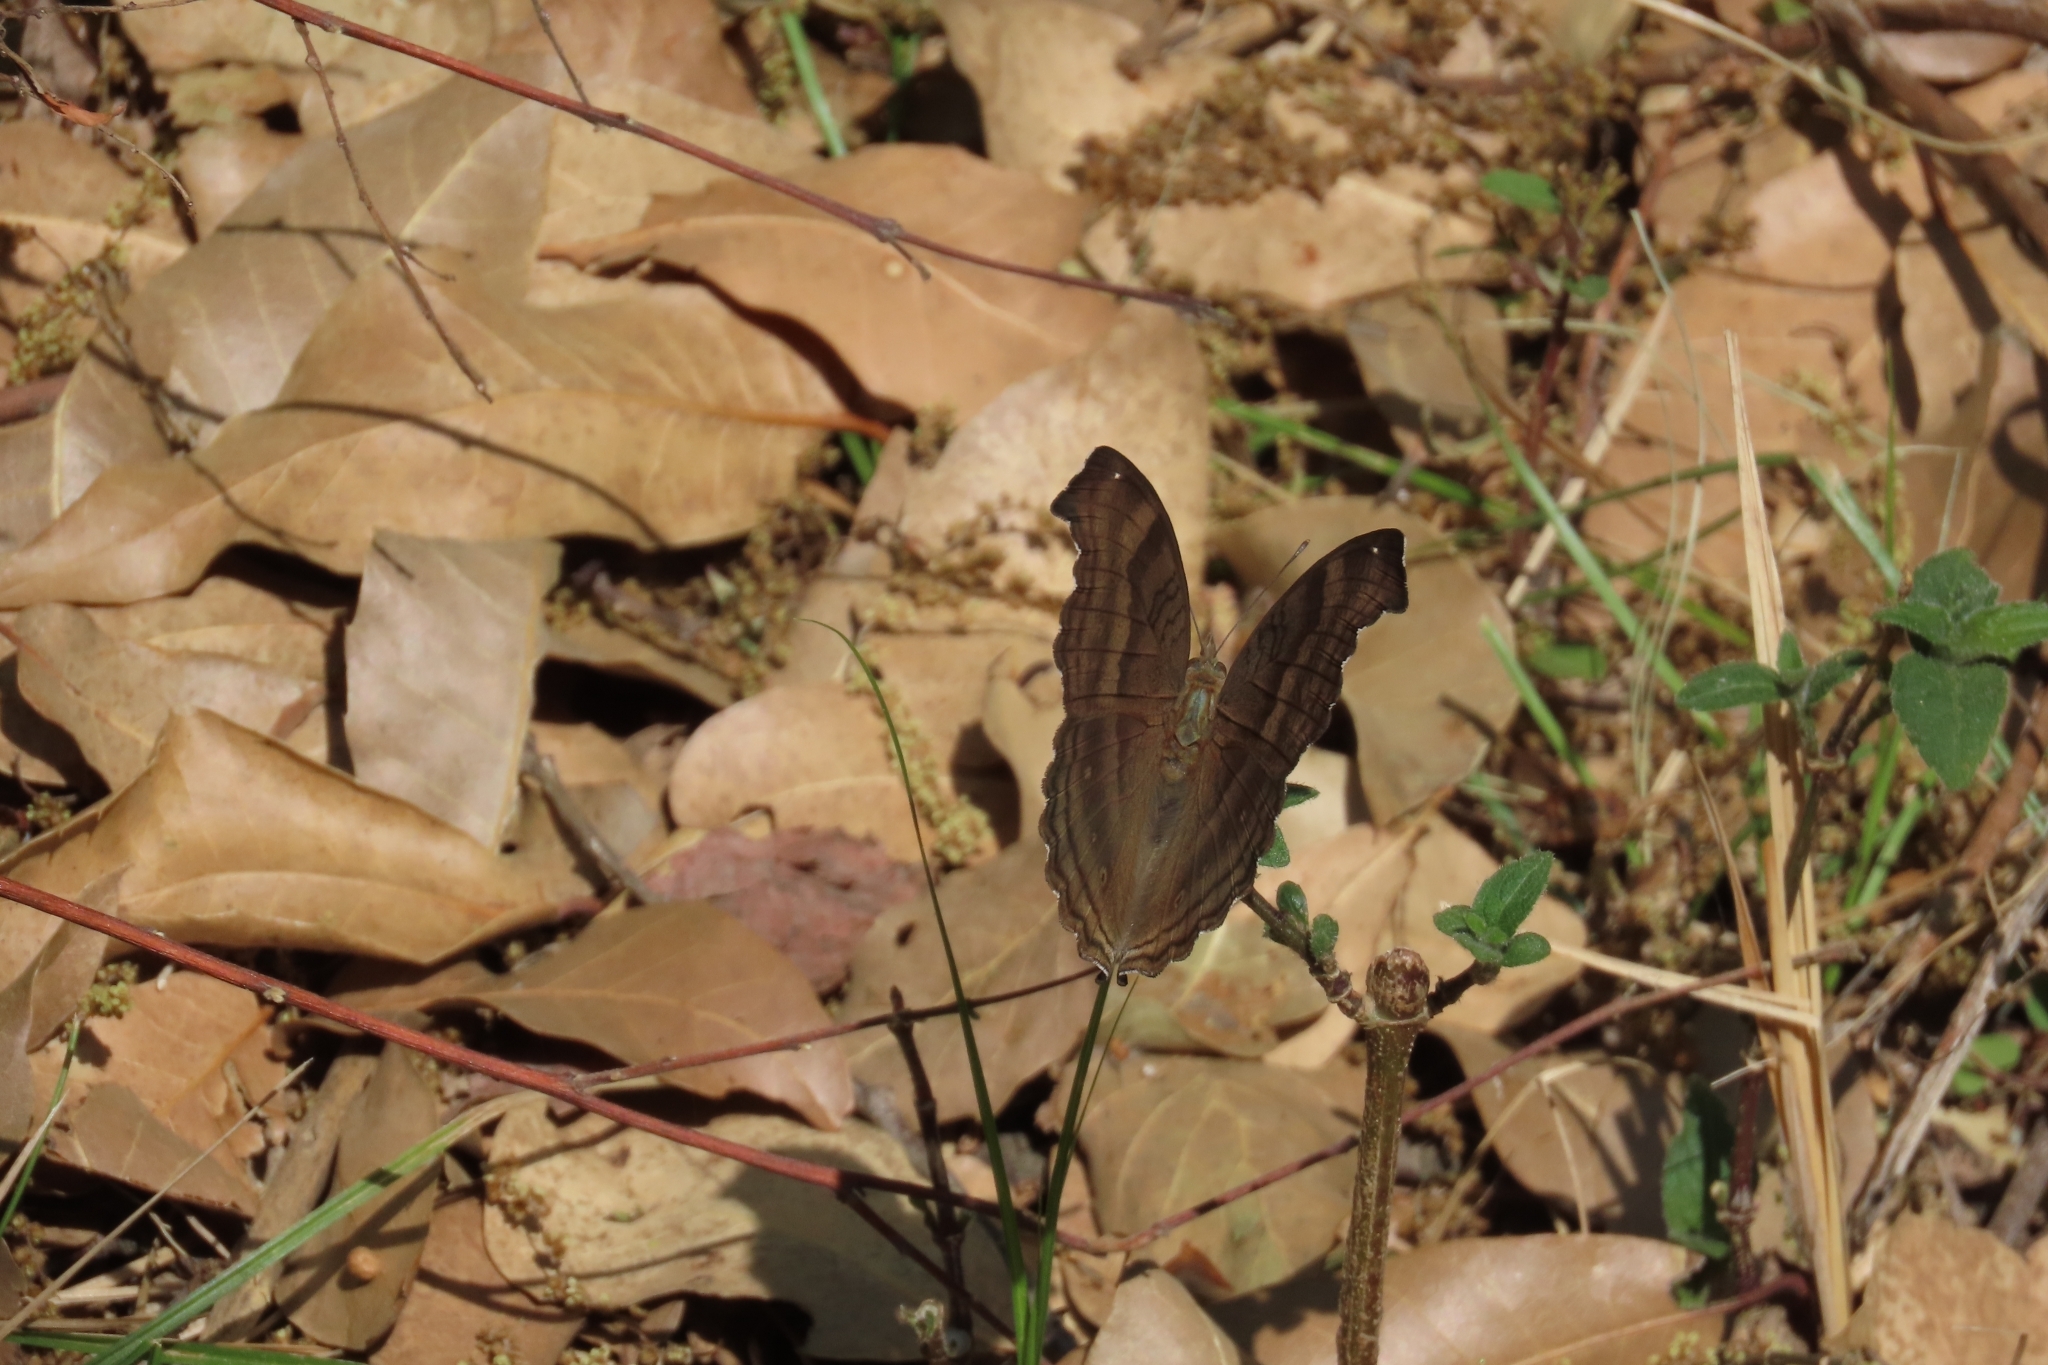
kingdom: Animalia
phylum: Arthropoda
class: Insecta
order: Lepidoptera
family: Nymphalidae
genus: Junonia
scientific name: Junonia iphita
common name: Chocolate pansy
